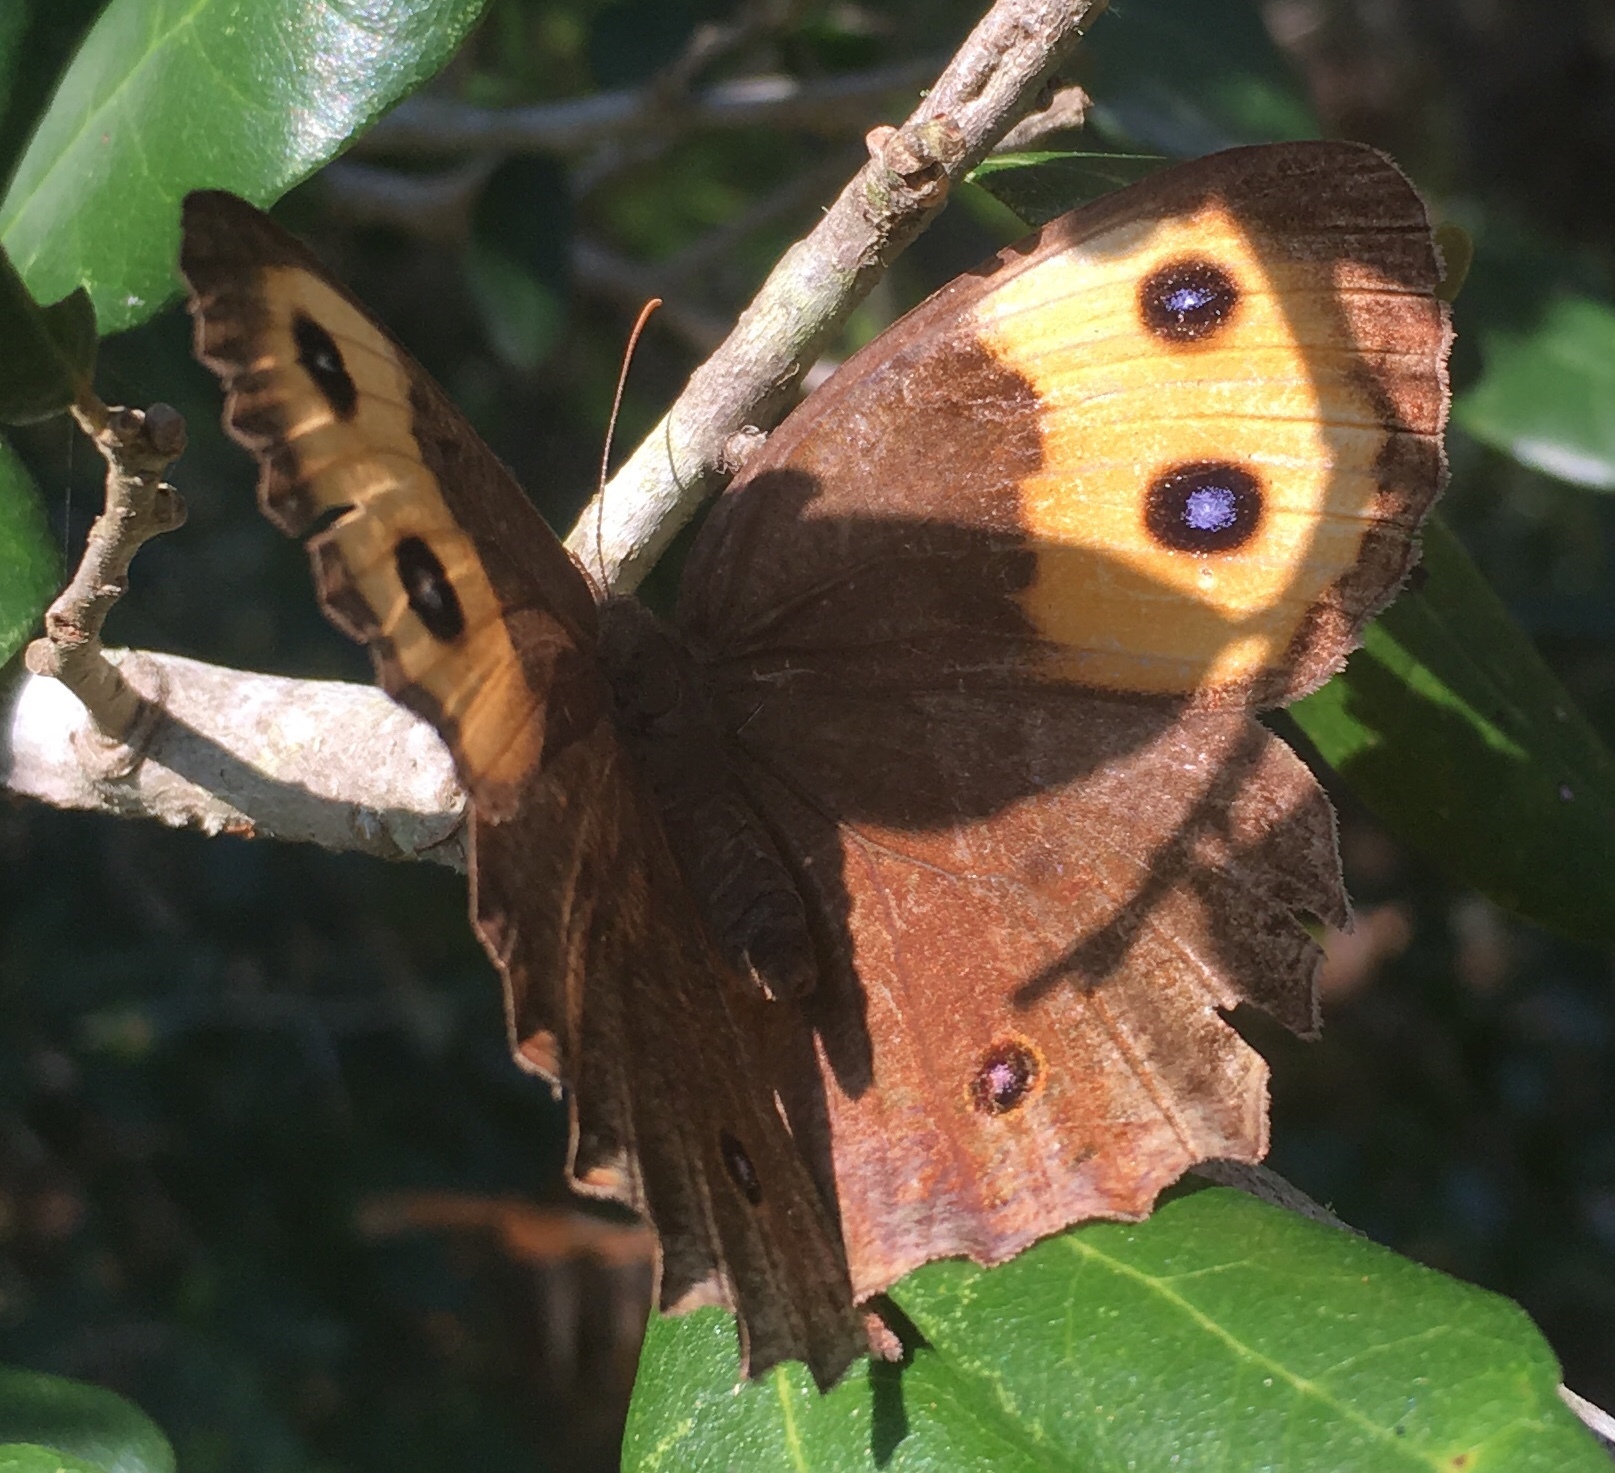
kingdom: Animalia
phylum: Arthropoda
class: Insecta
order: Lepidoptera
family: Nymphalidae
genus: Cercyonis
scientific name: Cercyonis pegala
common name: Common wood-nymph
